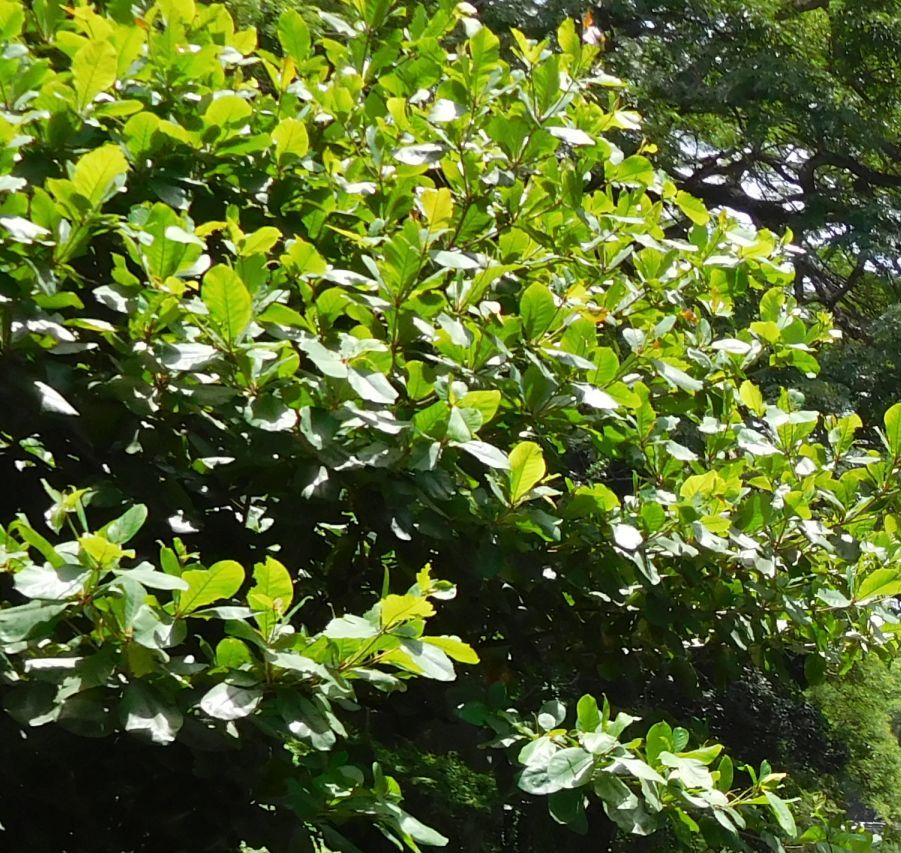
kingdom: Plantae
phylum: Tracheophyta
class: Magnoliopsida
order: Myrtales
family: Combretaceae
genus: Terminalia
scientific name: Terminalia catappa
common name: Tropical almond
